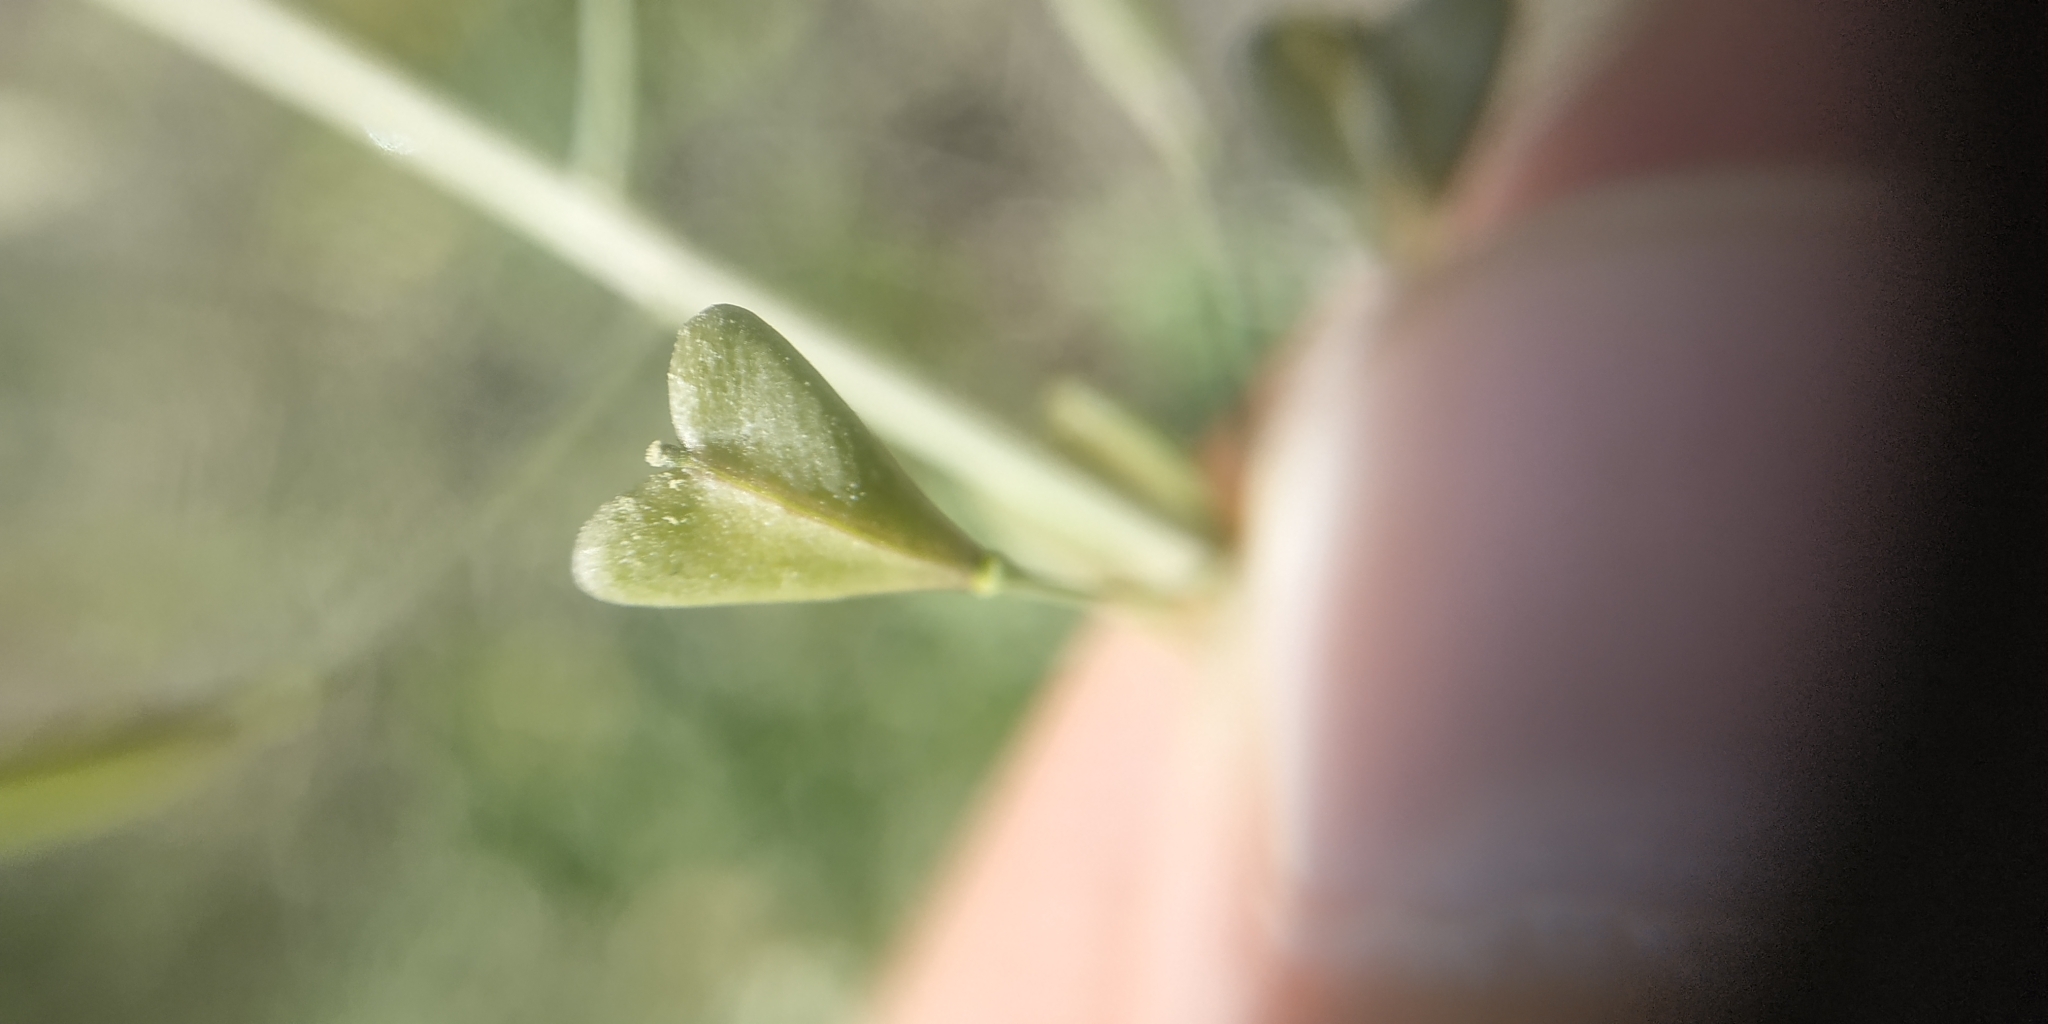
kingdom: Plantae
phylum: Tracheophyta
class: Magnoliopsida
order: Brassicales
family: Brassicaceae
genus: Capsella
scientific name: Capsella bursa-pastoris
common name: Shepherd's purse
